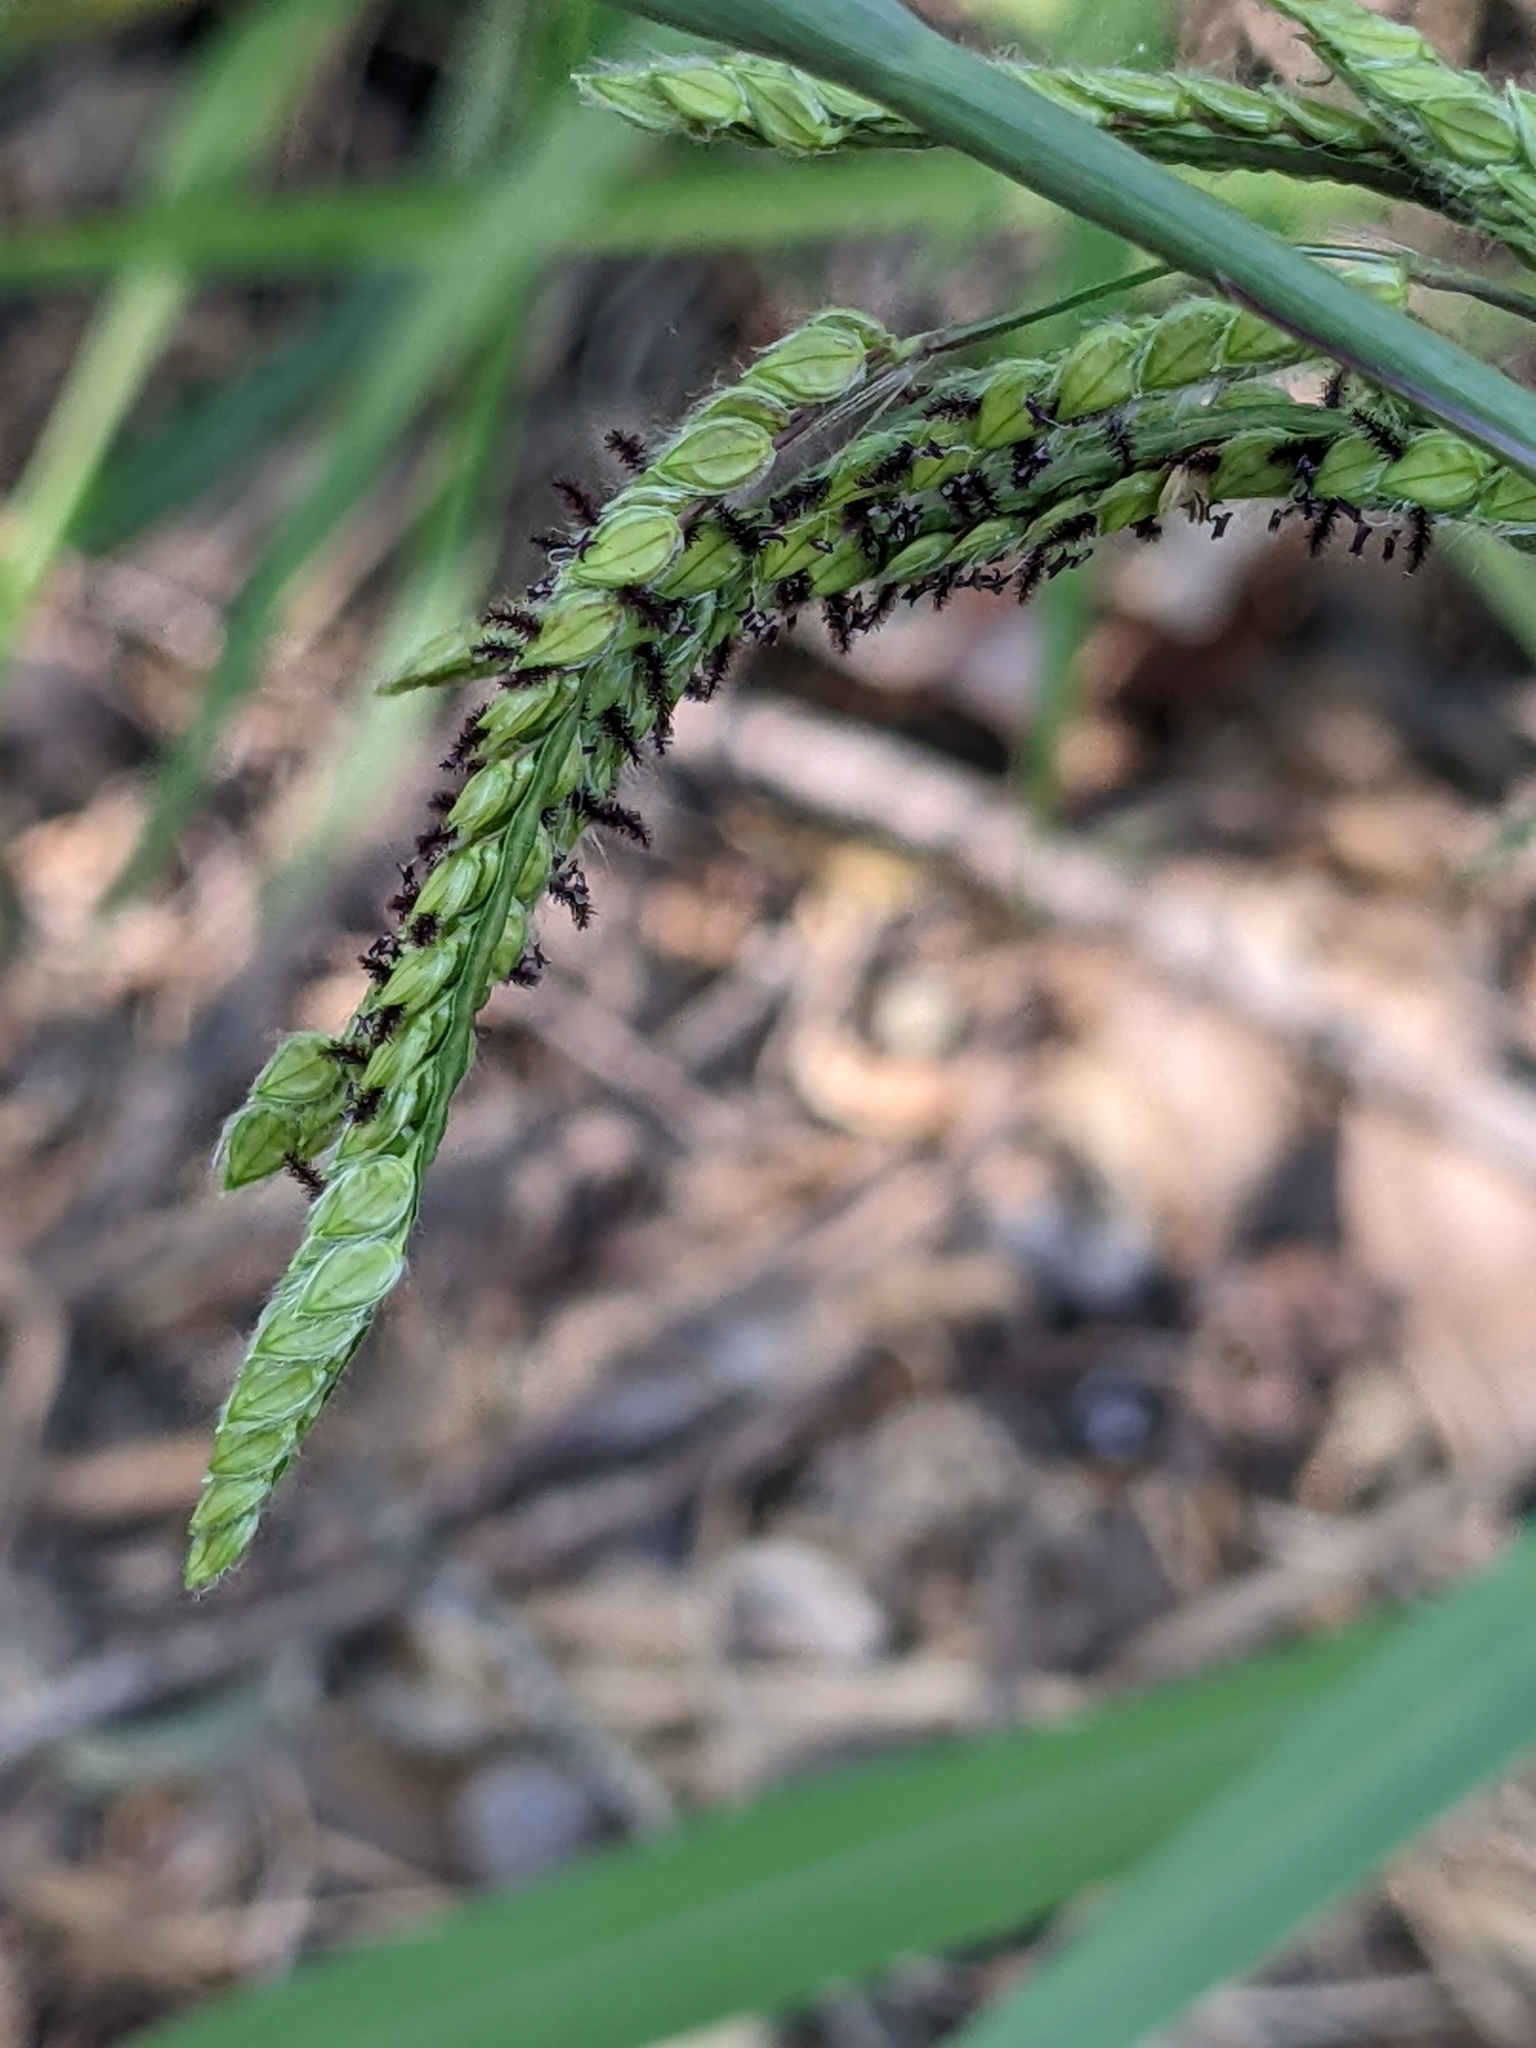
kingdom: Plantae
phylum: Tracheophyta
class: Liliopsida
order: Poales
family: Poaceae
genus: Paspalum
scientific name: Paspalum dilatatum
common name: Dallisgrass
